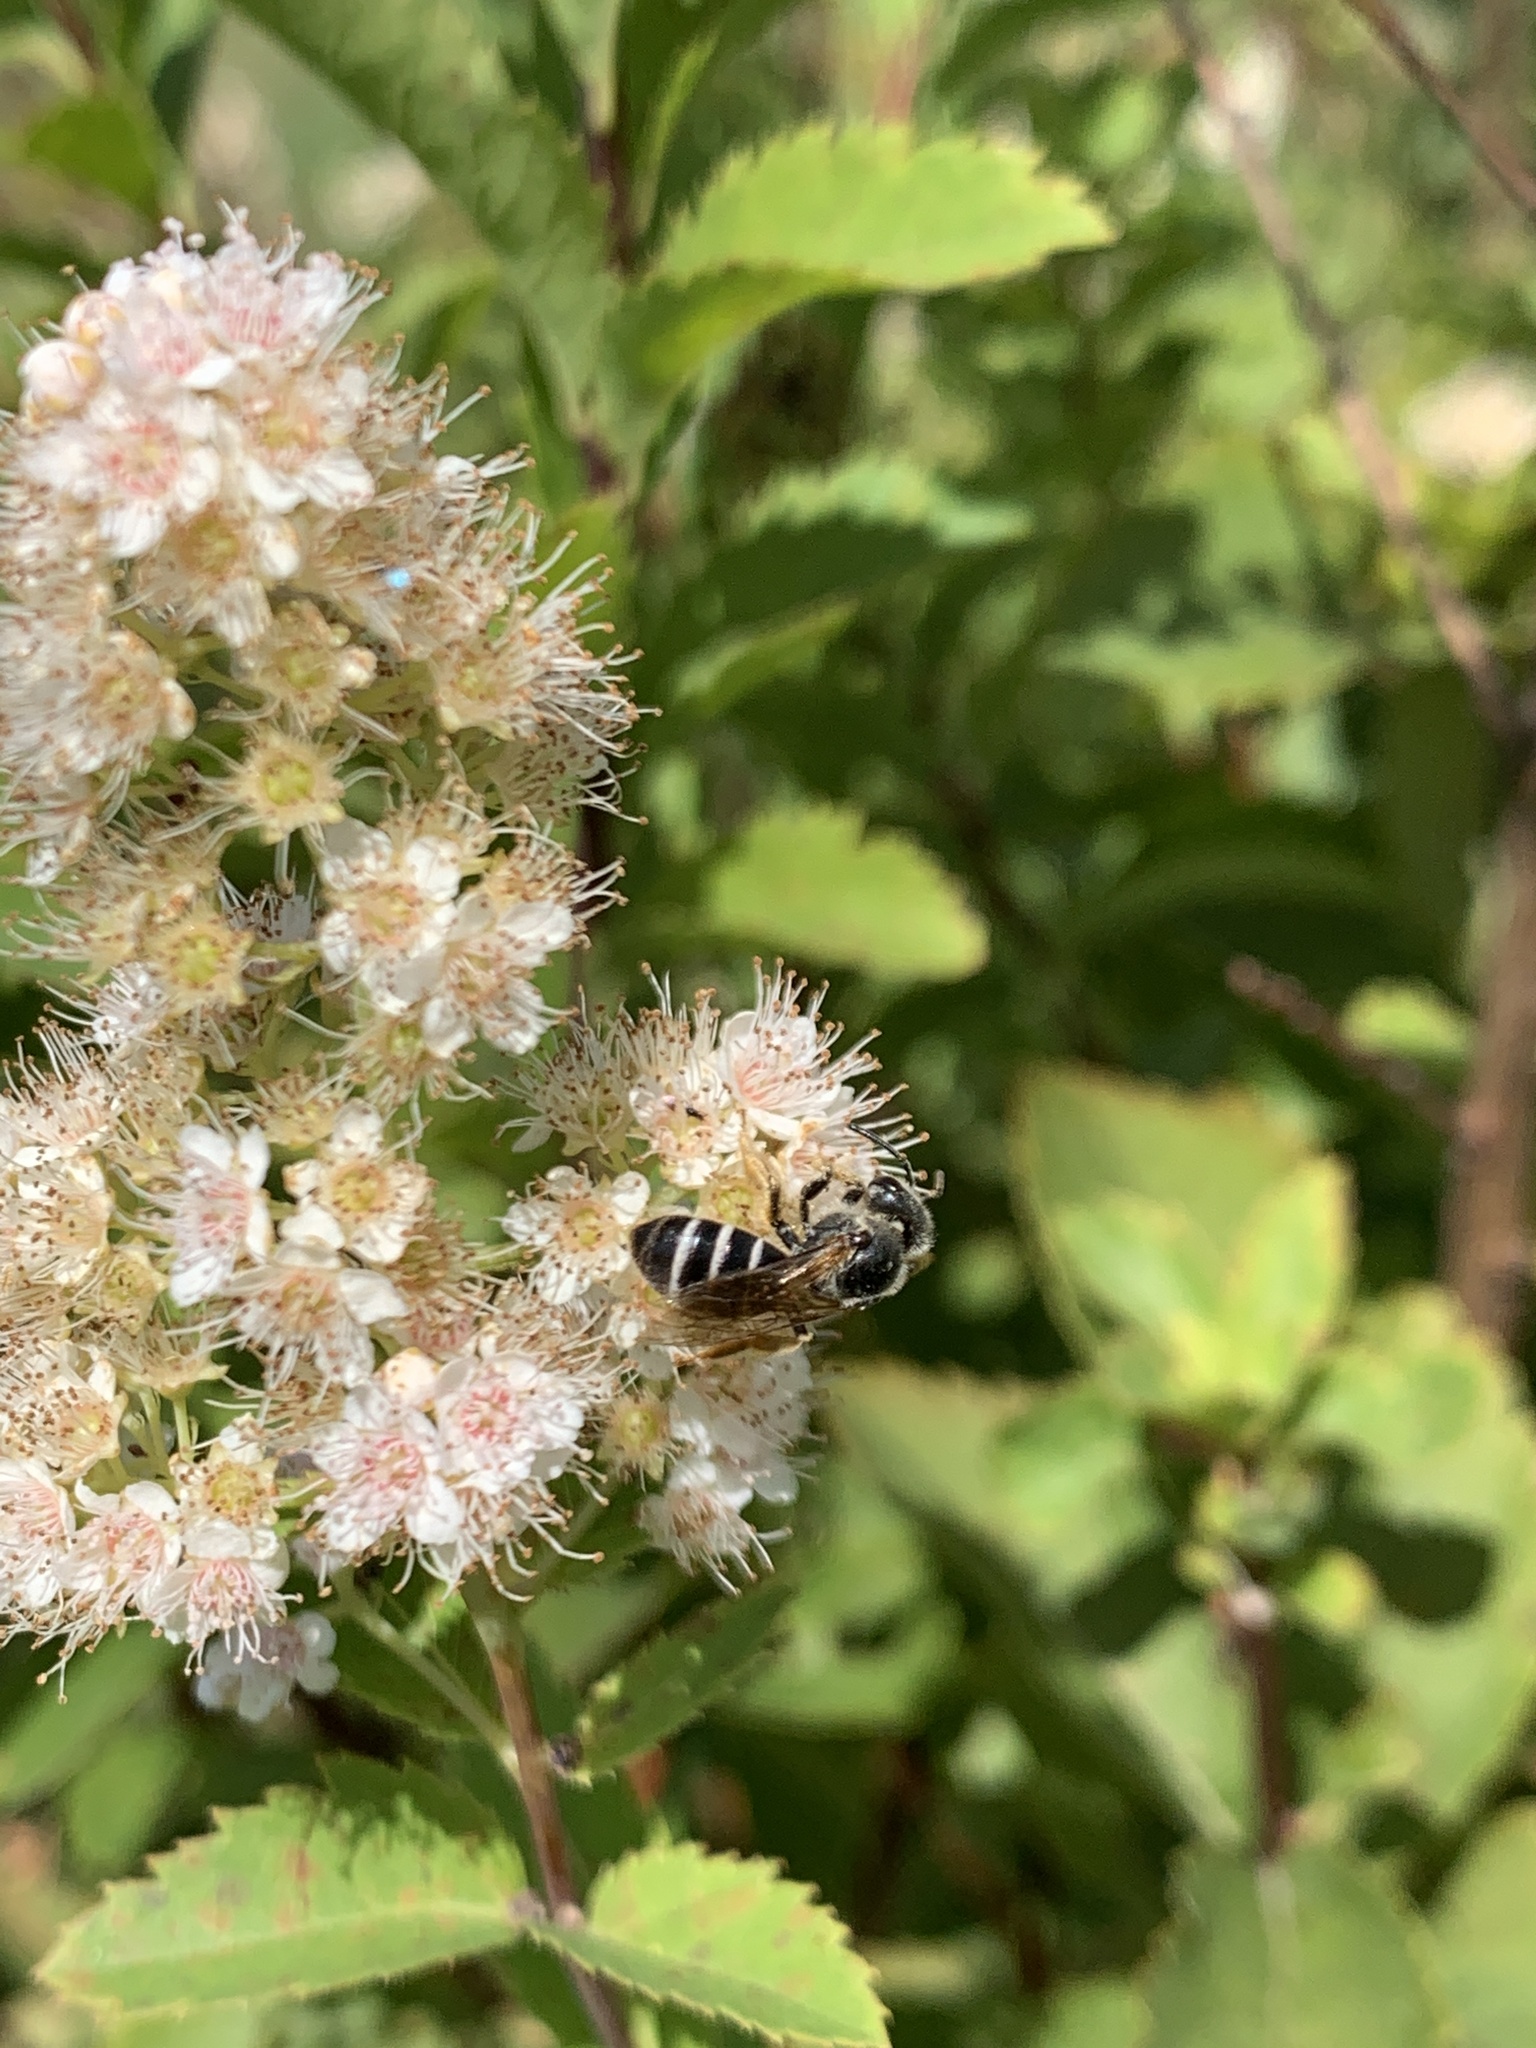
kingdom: Animalia
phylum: Arthropoda
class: Insecta
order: Hymenoptera
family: Halictidae
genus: Halictus
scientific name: Halictus rubicundus
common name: Orange-legged furrow bee
